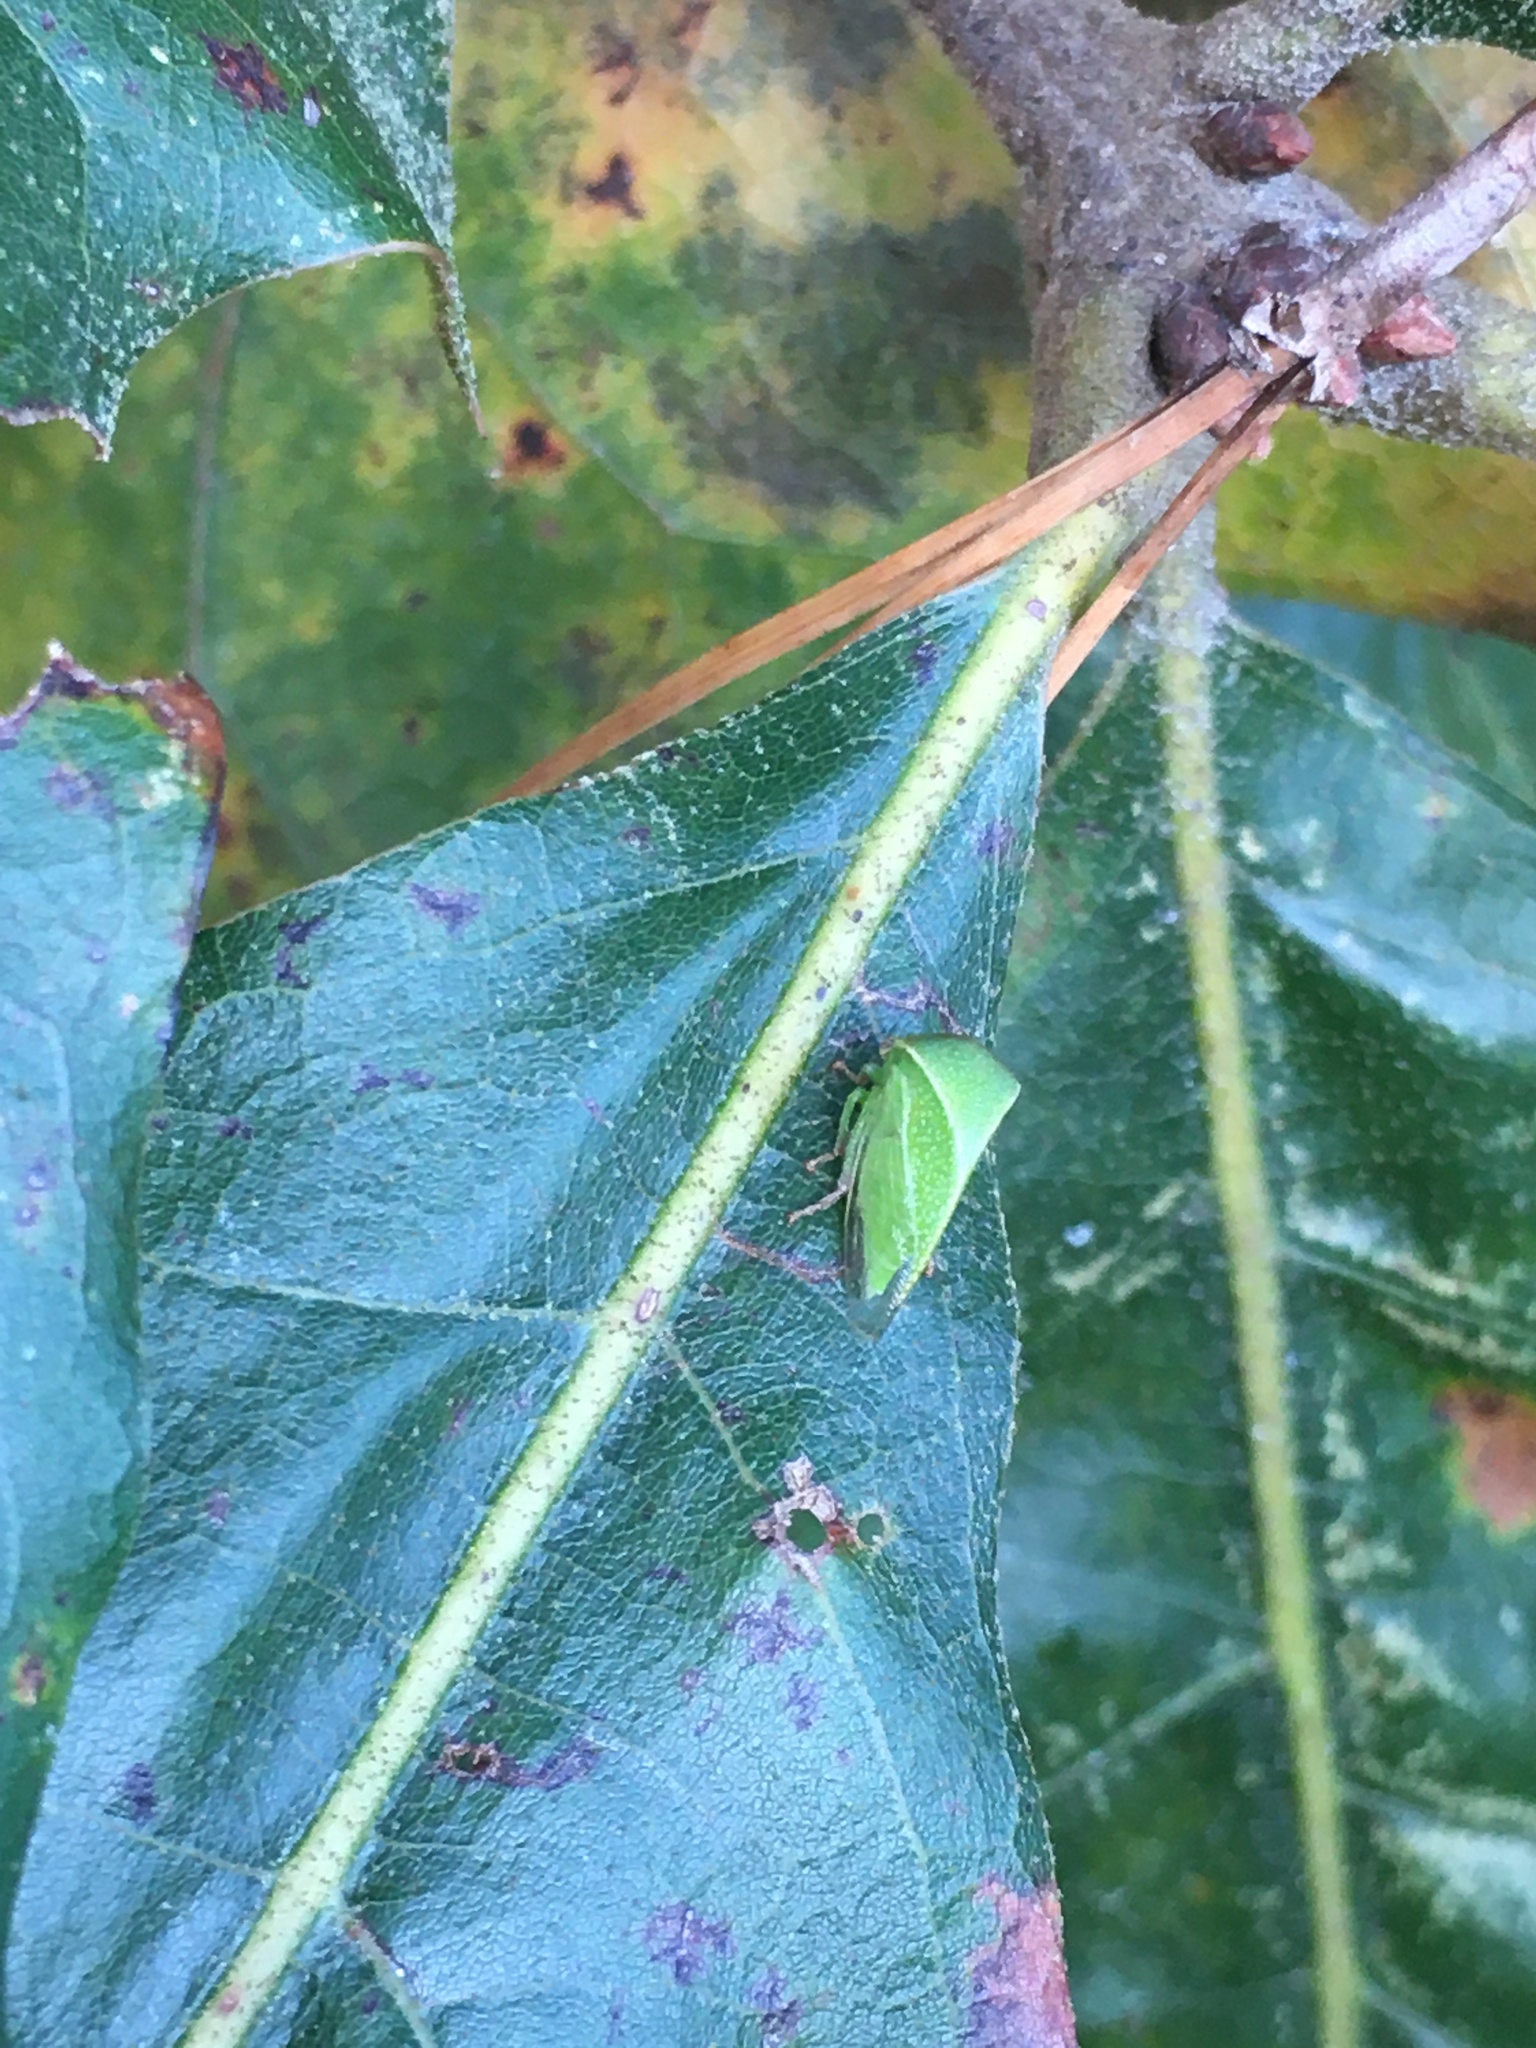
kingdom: Animalia
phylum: Arthropoda
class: Insecta
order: Hemiptera
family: Membracidae
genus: Spissistilus
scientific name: Spissistilus festina
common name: Membracid bug
